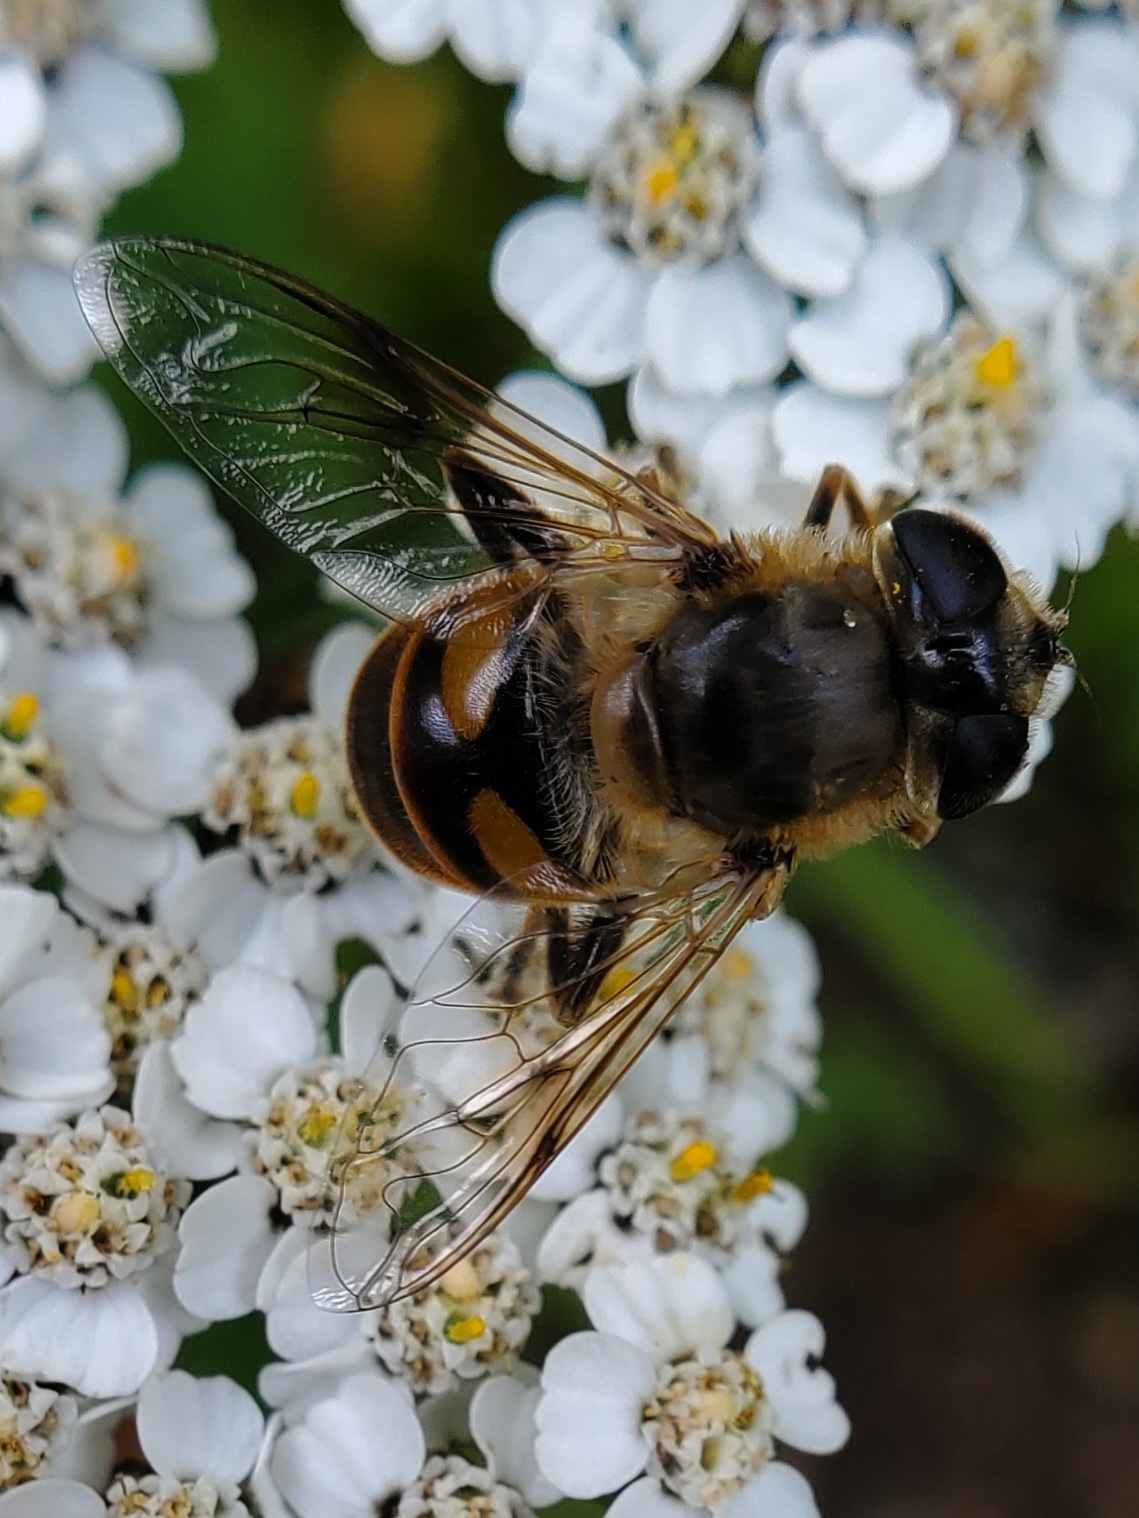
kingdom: Animalia
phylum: Arthropoda
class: Insecta
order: Diptera
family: Syrphidae
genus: Eristalis
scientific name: Eristalis tenax
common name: Drone fly
